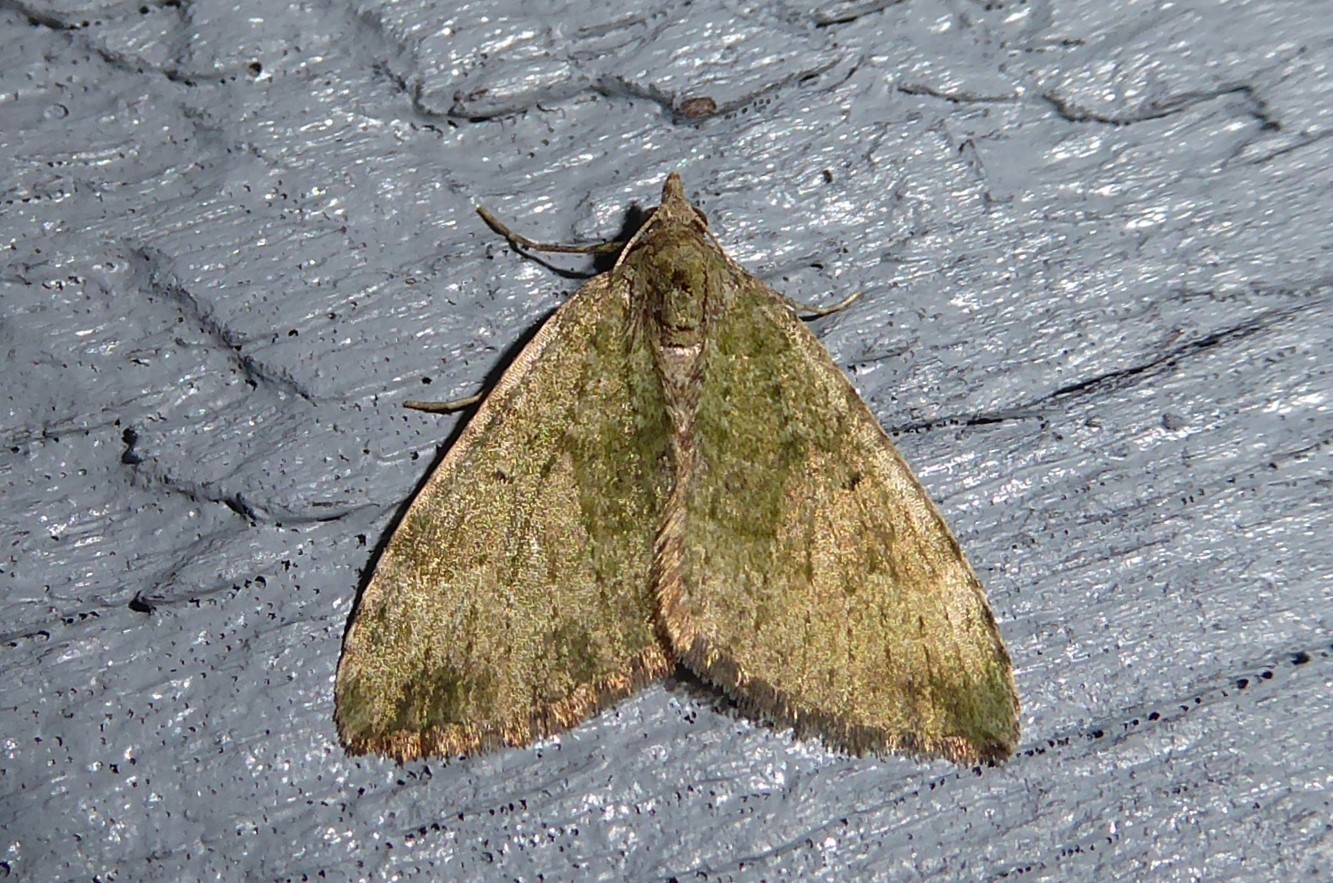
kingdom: Animalia
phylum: Arthropoda
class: Insecta
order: Lepidoptera
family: Geometridae
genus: Epyaxa
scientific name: Epyaxa rosearia
